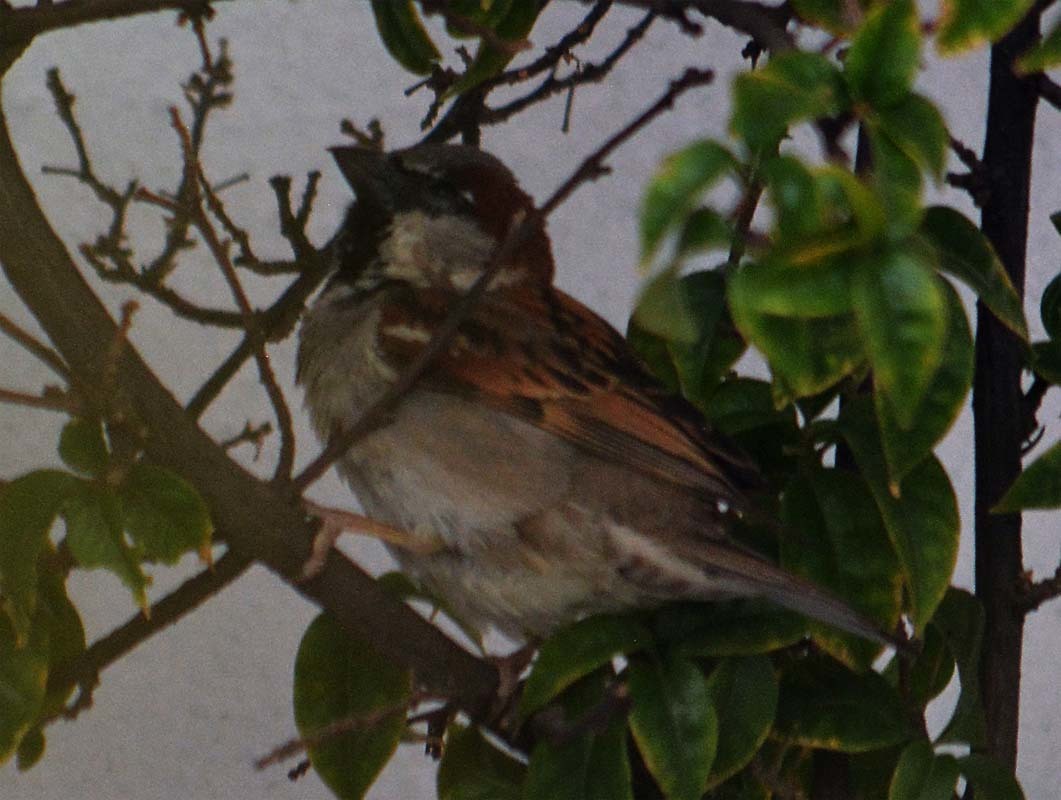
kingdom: Animalia
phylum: Chordata
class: Aves
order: Passeriformes
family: Passeridae
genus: Passer
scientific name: Passer domesticus
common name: House sparrow
